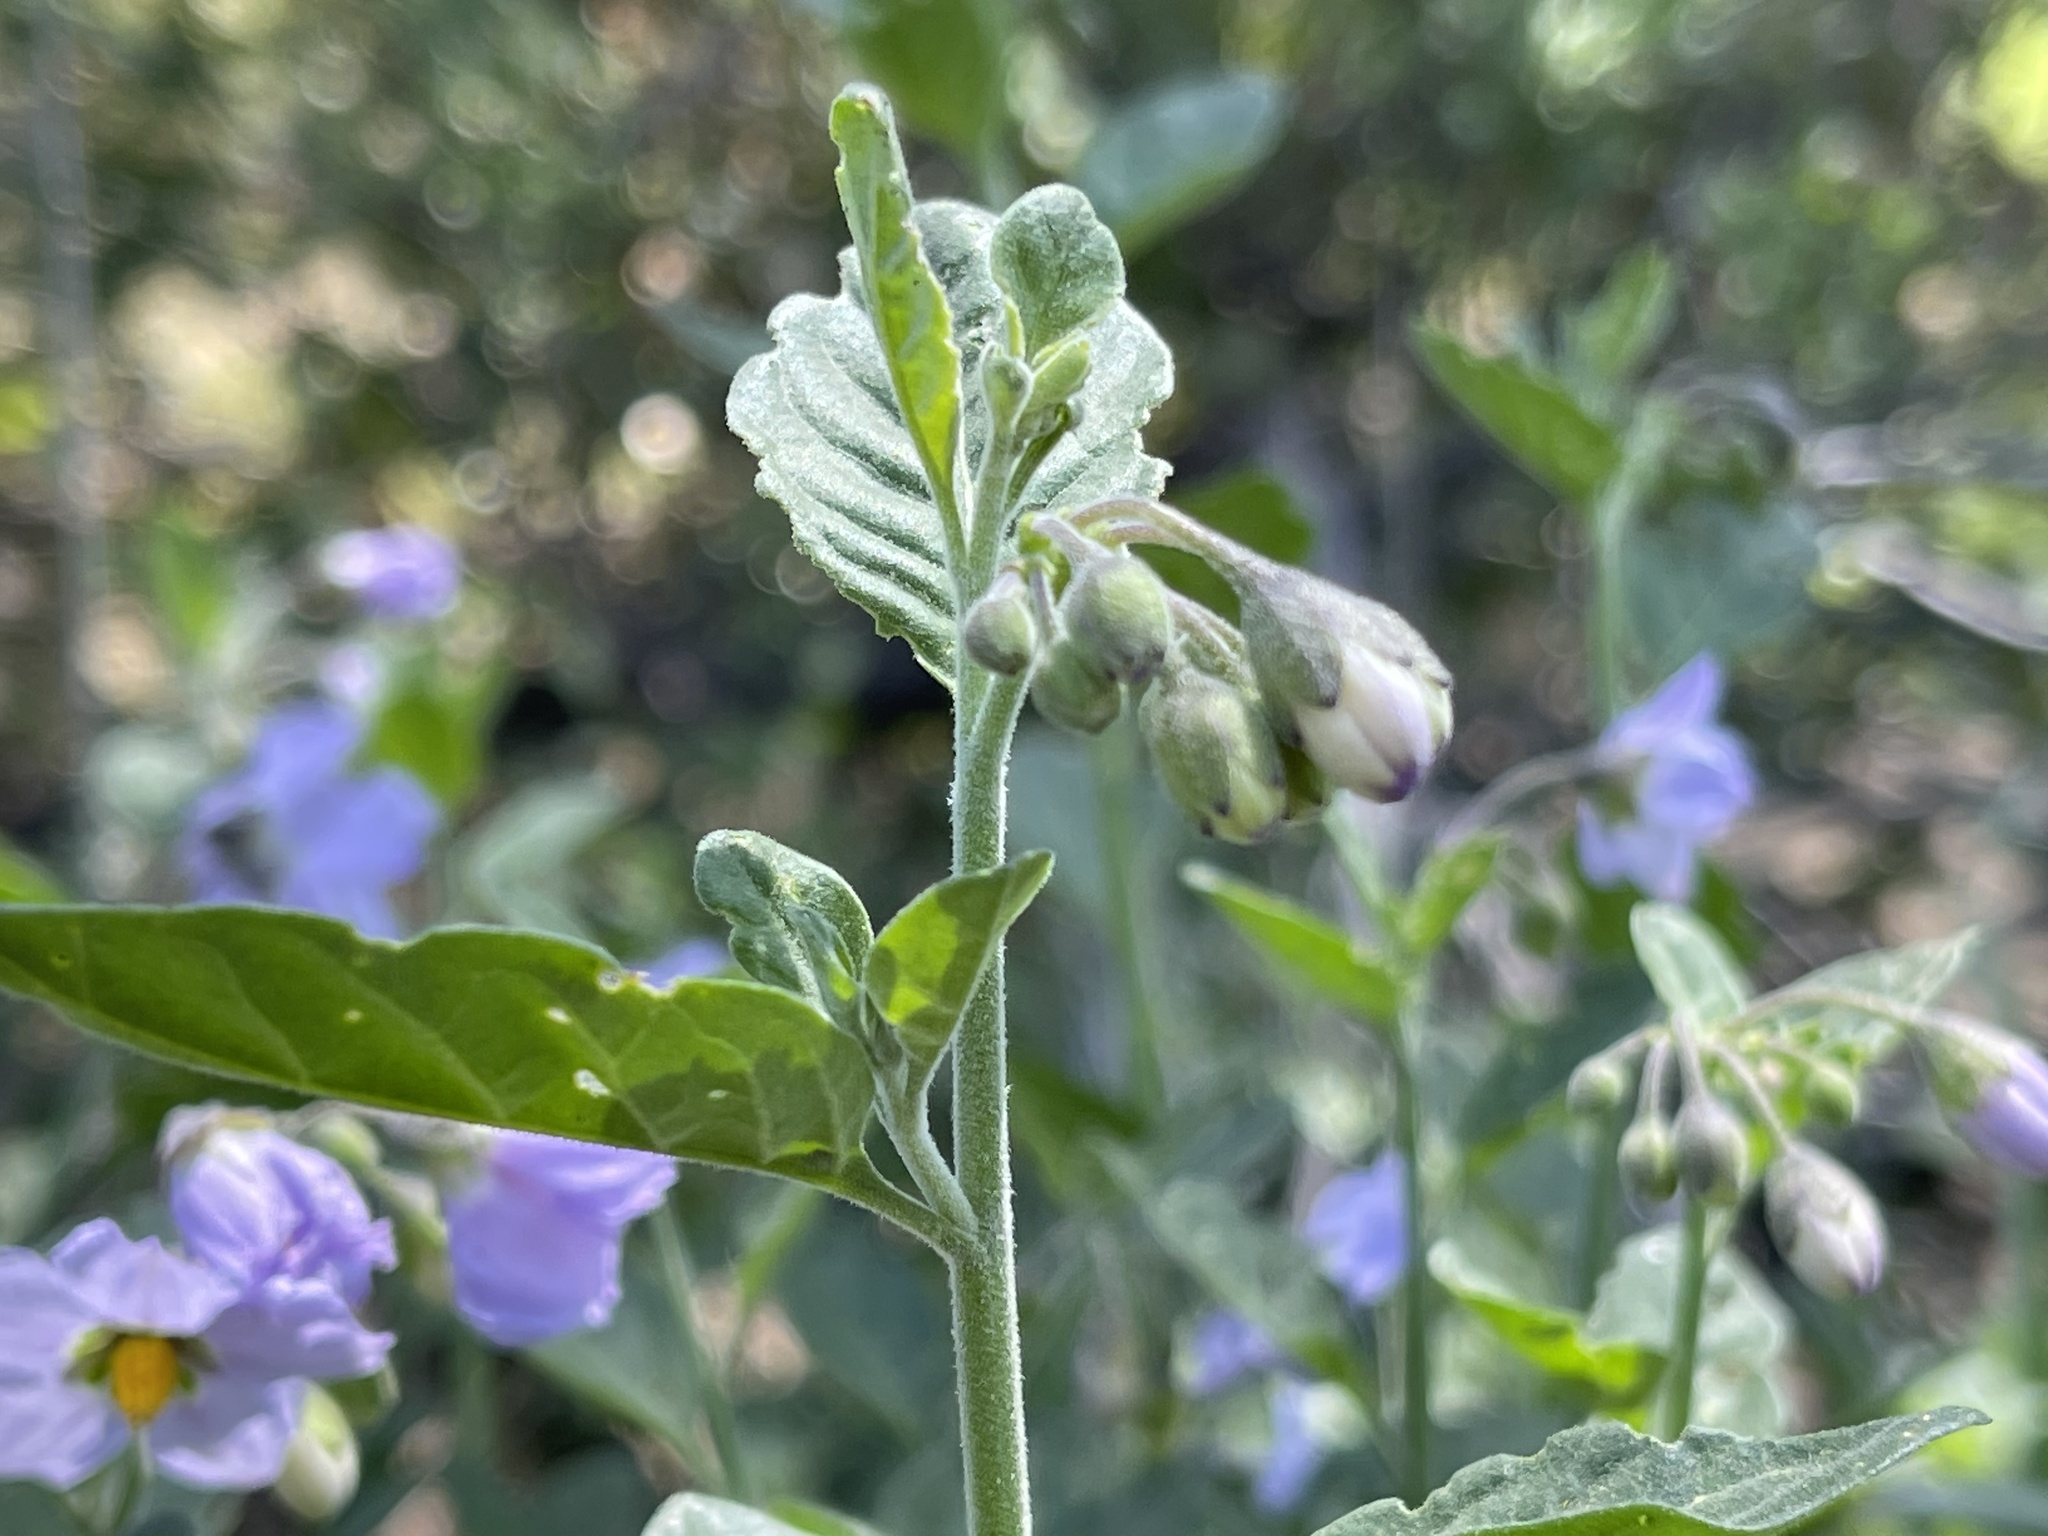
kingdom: Plantae
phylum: Tracheophyta
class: Magnoliopsida
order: Solanales
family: Solanaceae
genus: Solanum
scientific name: Solanum umbelliferum
